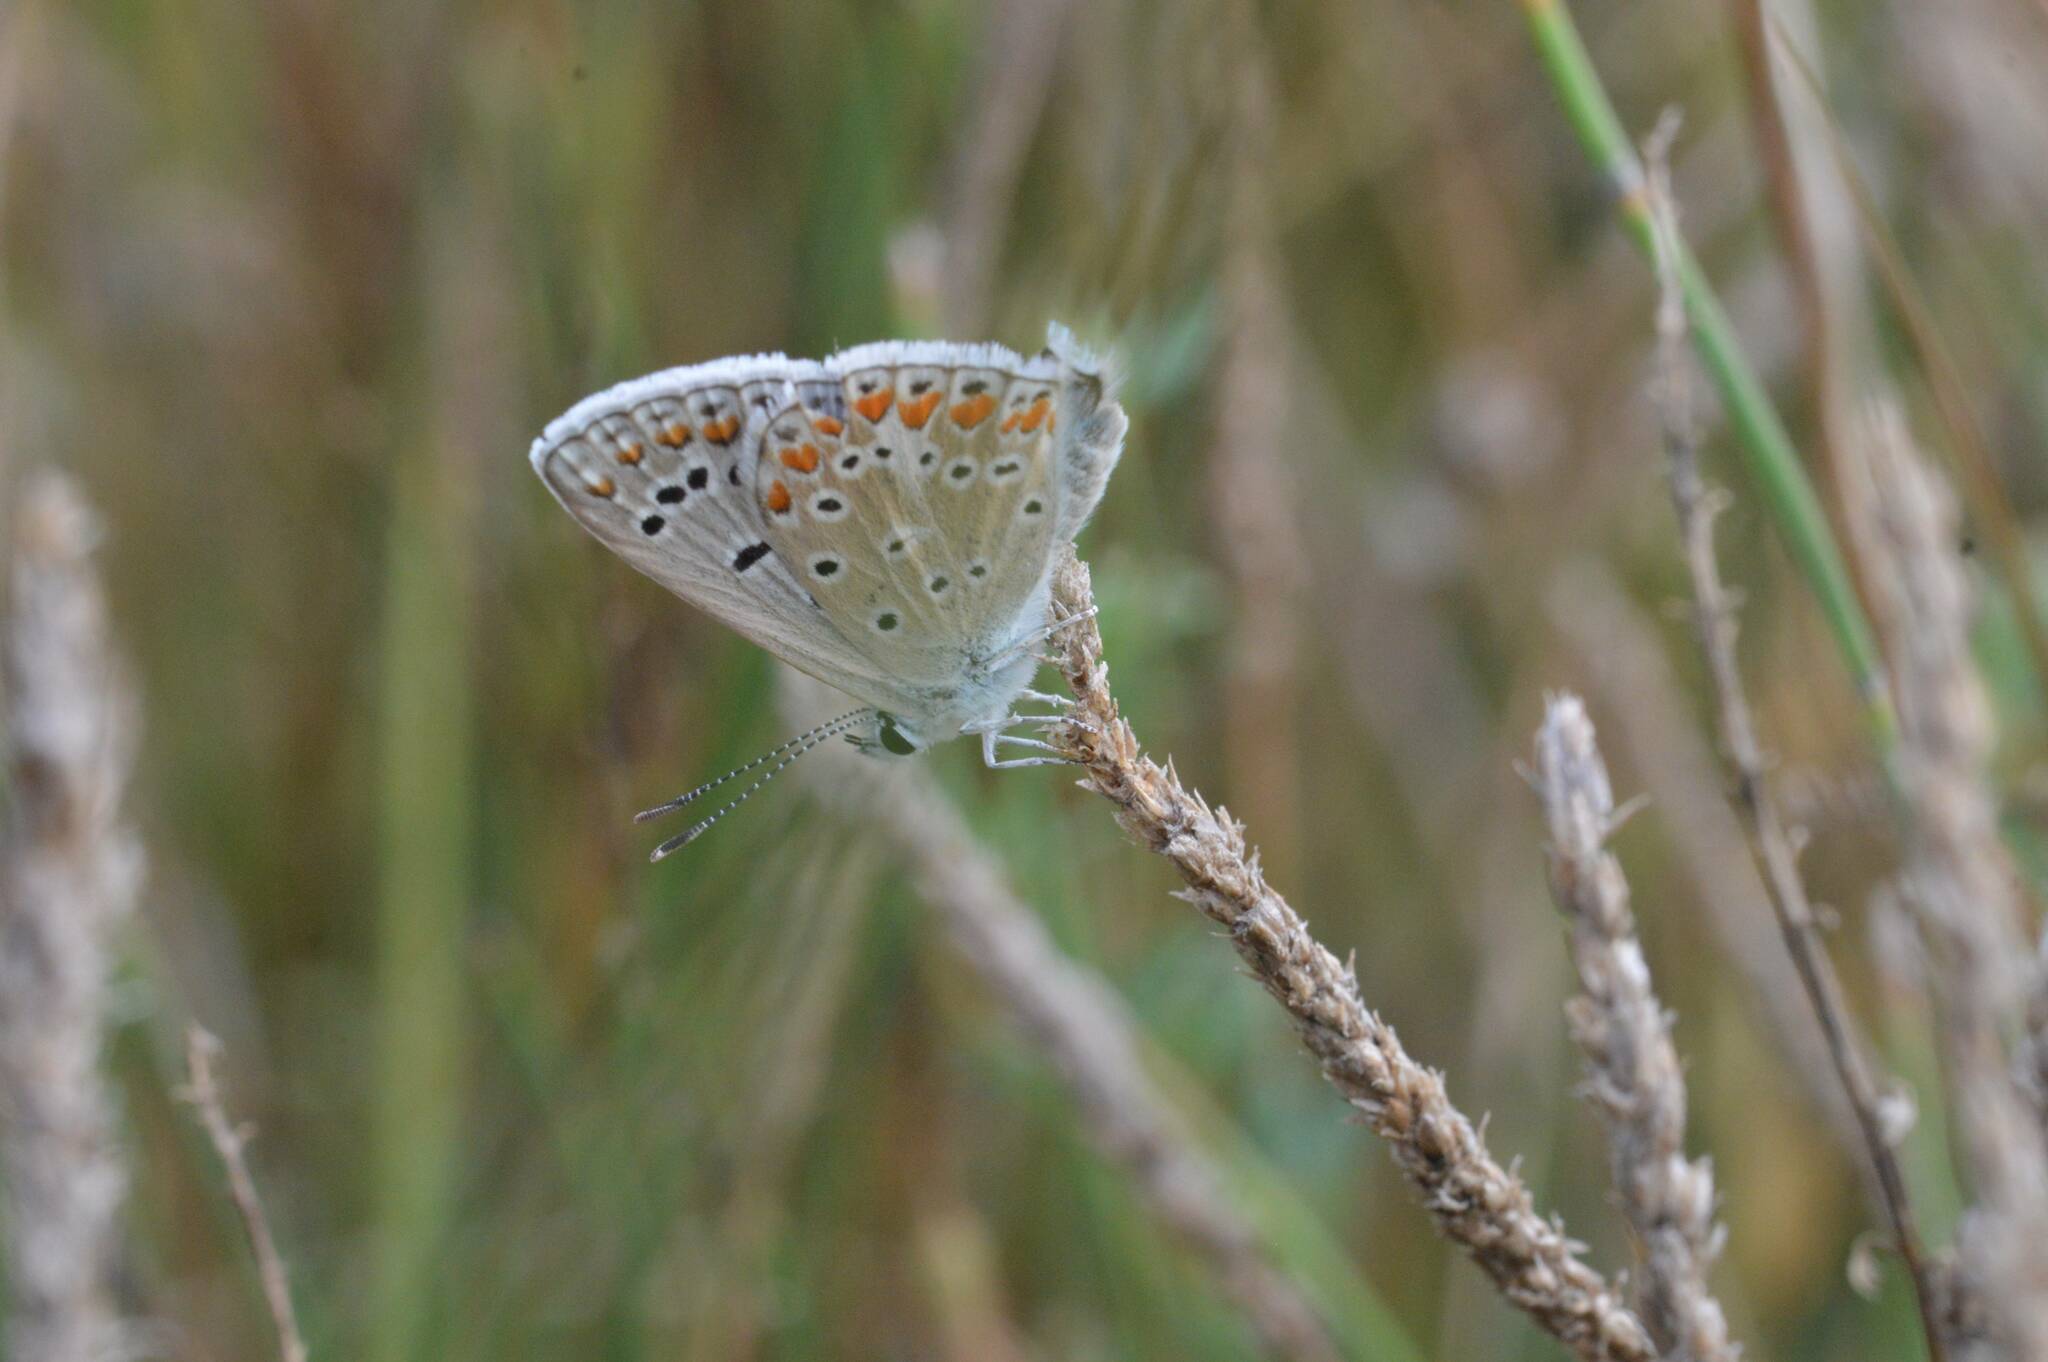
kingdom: Animalia
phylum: Arthropoda
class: Insecta
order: Lepidoptera
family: Lycaenidae
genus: Polyommatus
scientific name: Polyommatus celina
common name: Austaut's blue
